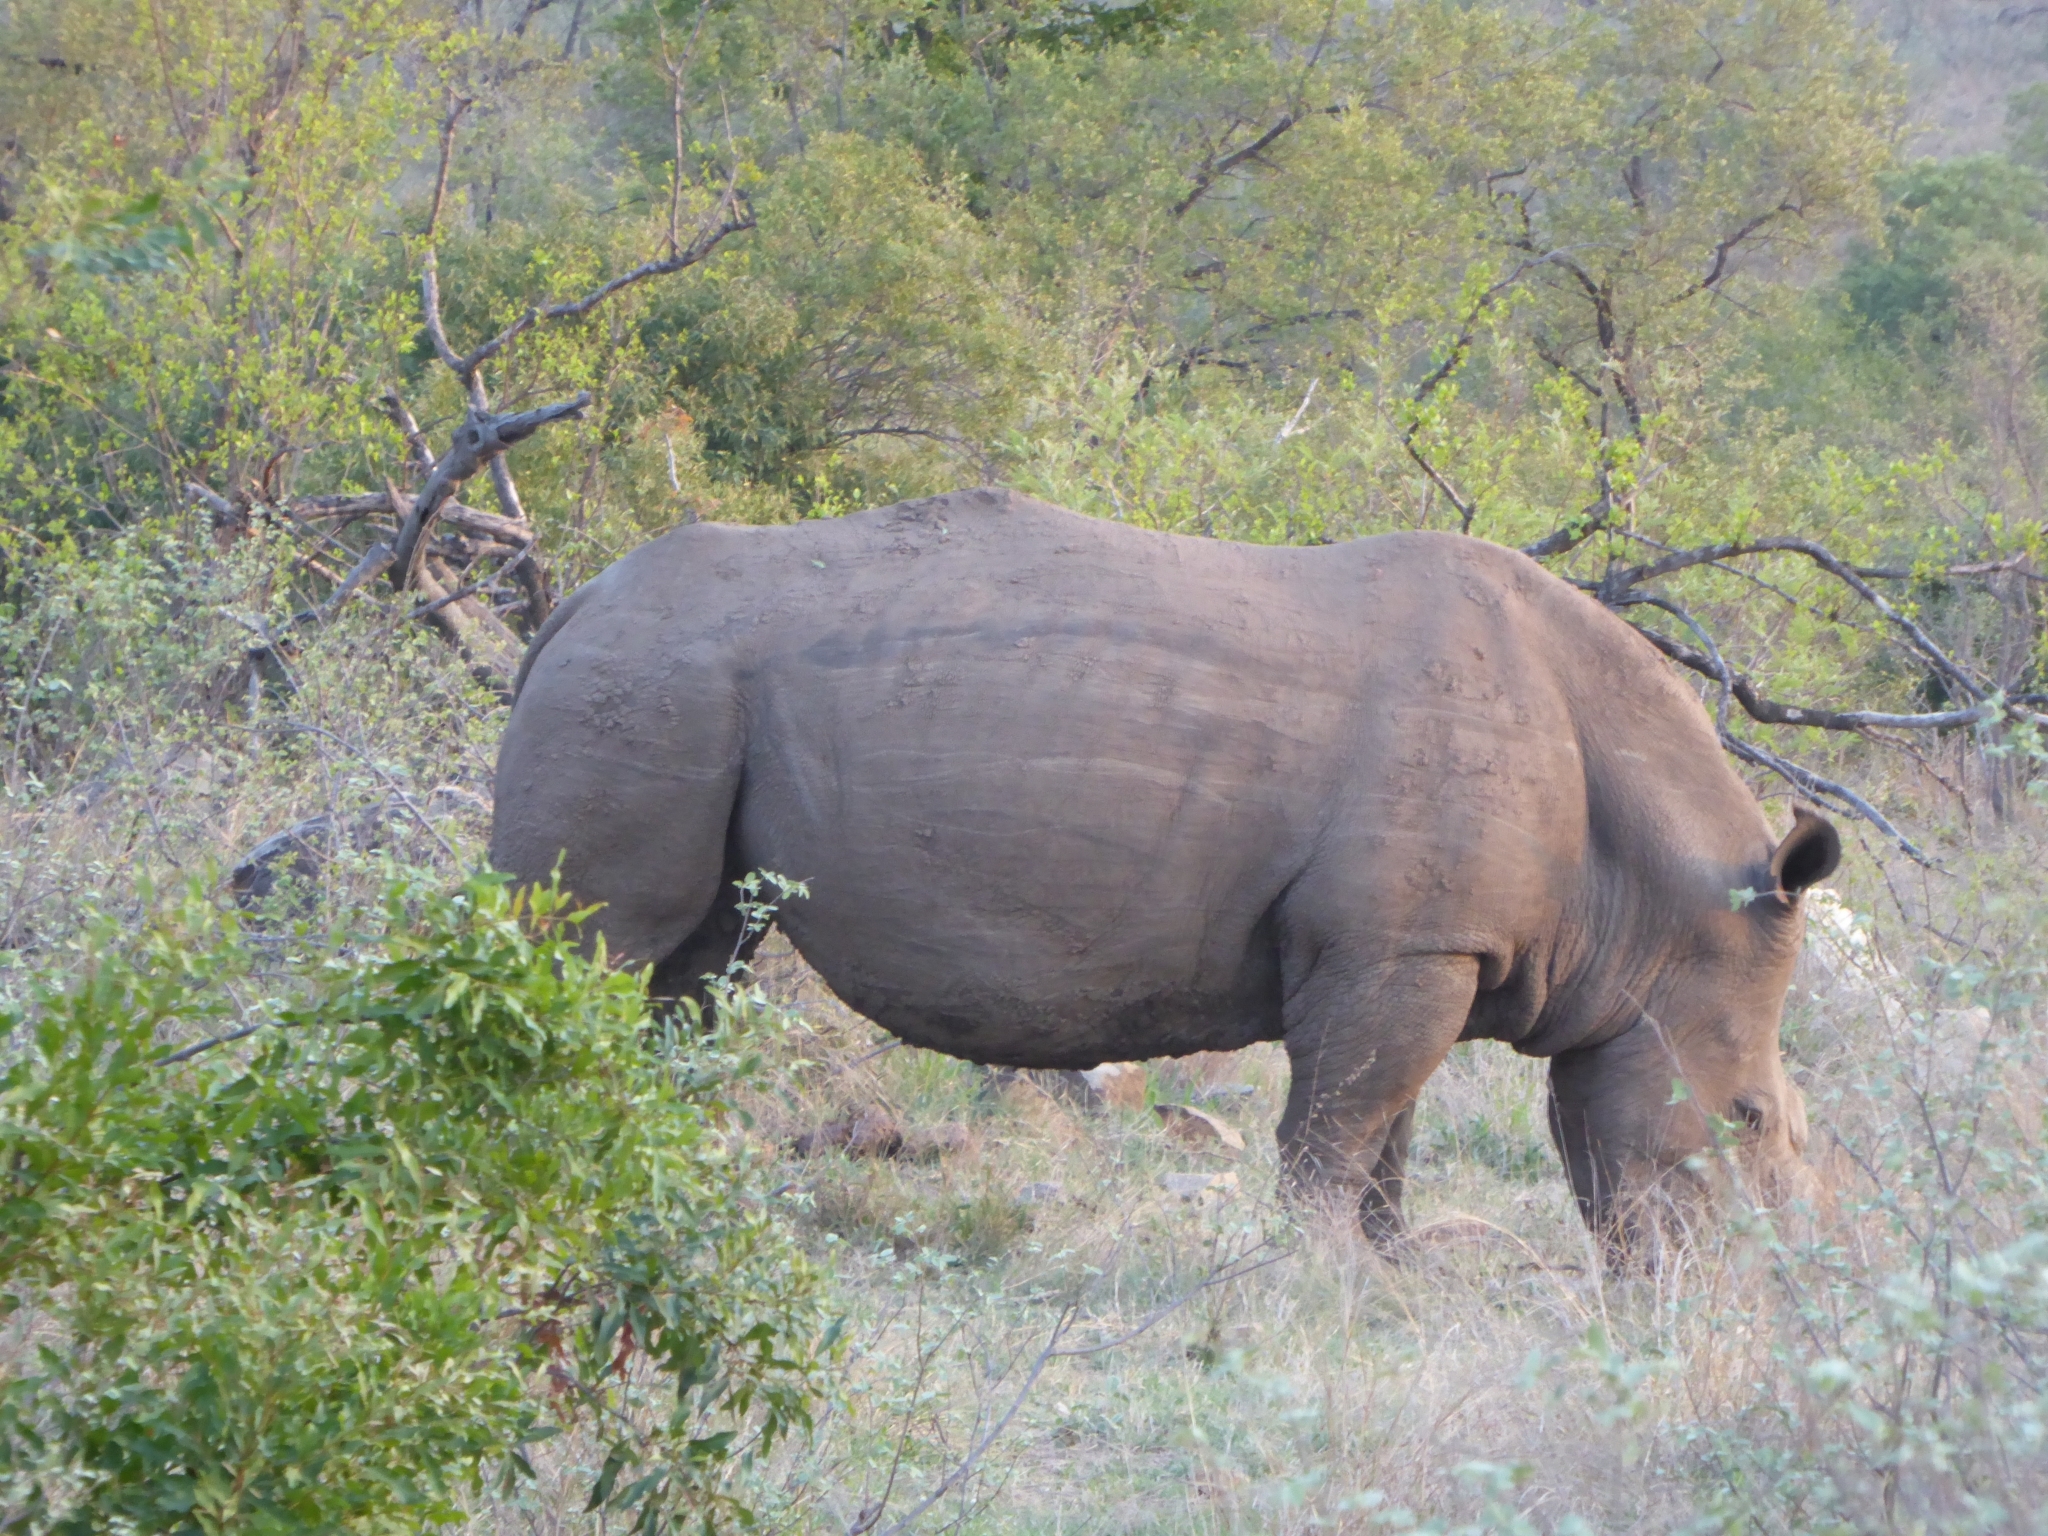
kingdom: Animalia
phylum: Chordata
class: Mammalia
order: Perissodactyla
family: Rhinocerotidae
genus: Ceratotherium
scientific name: Ceratotherium simum
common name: White rhinoceros
